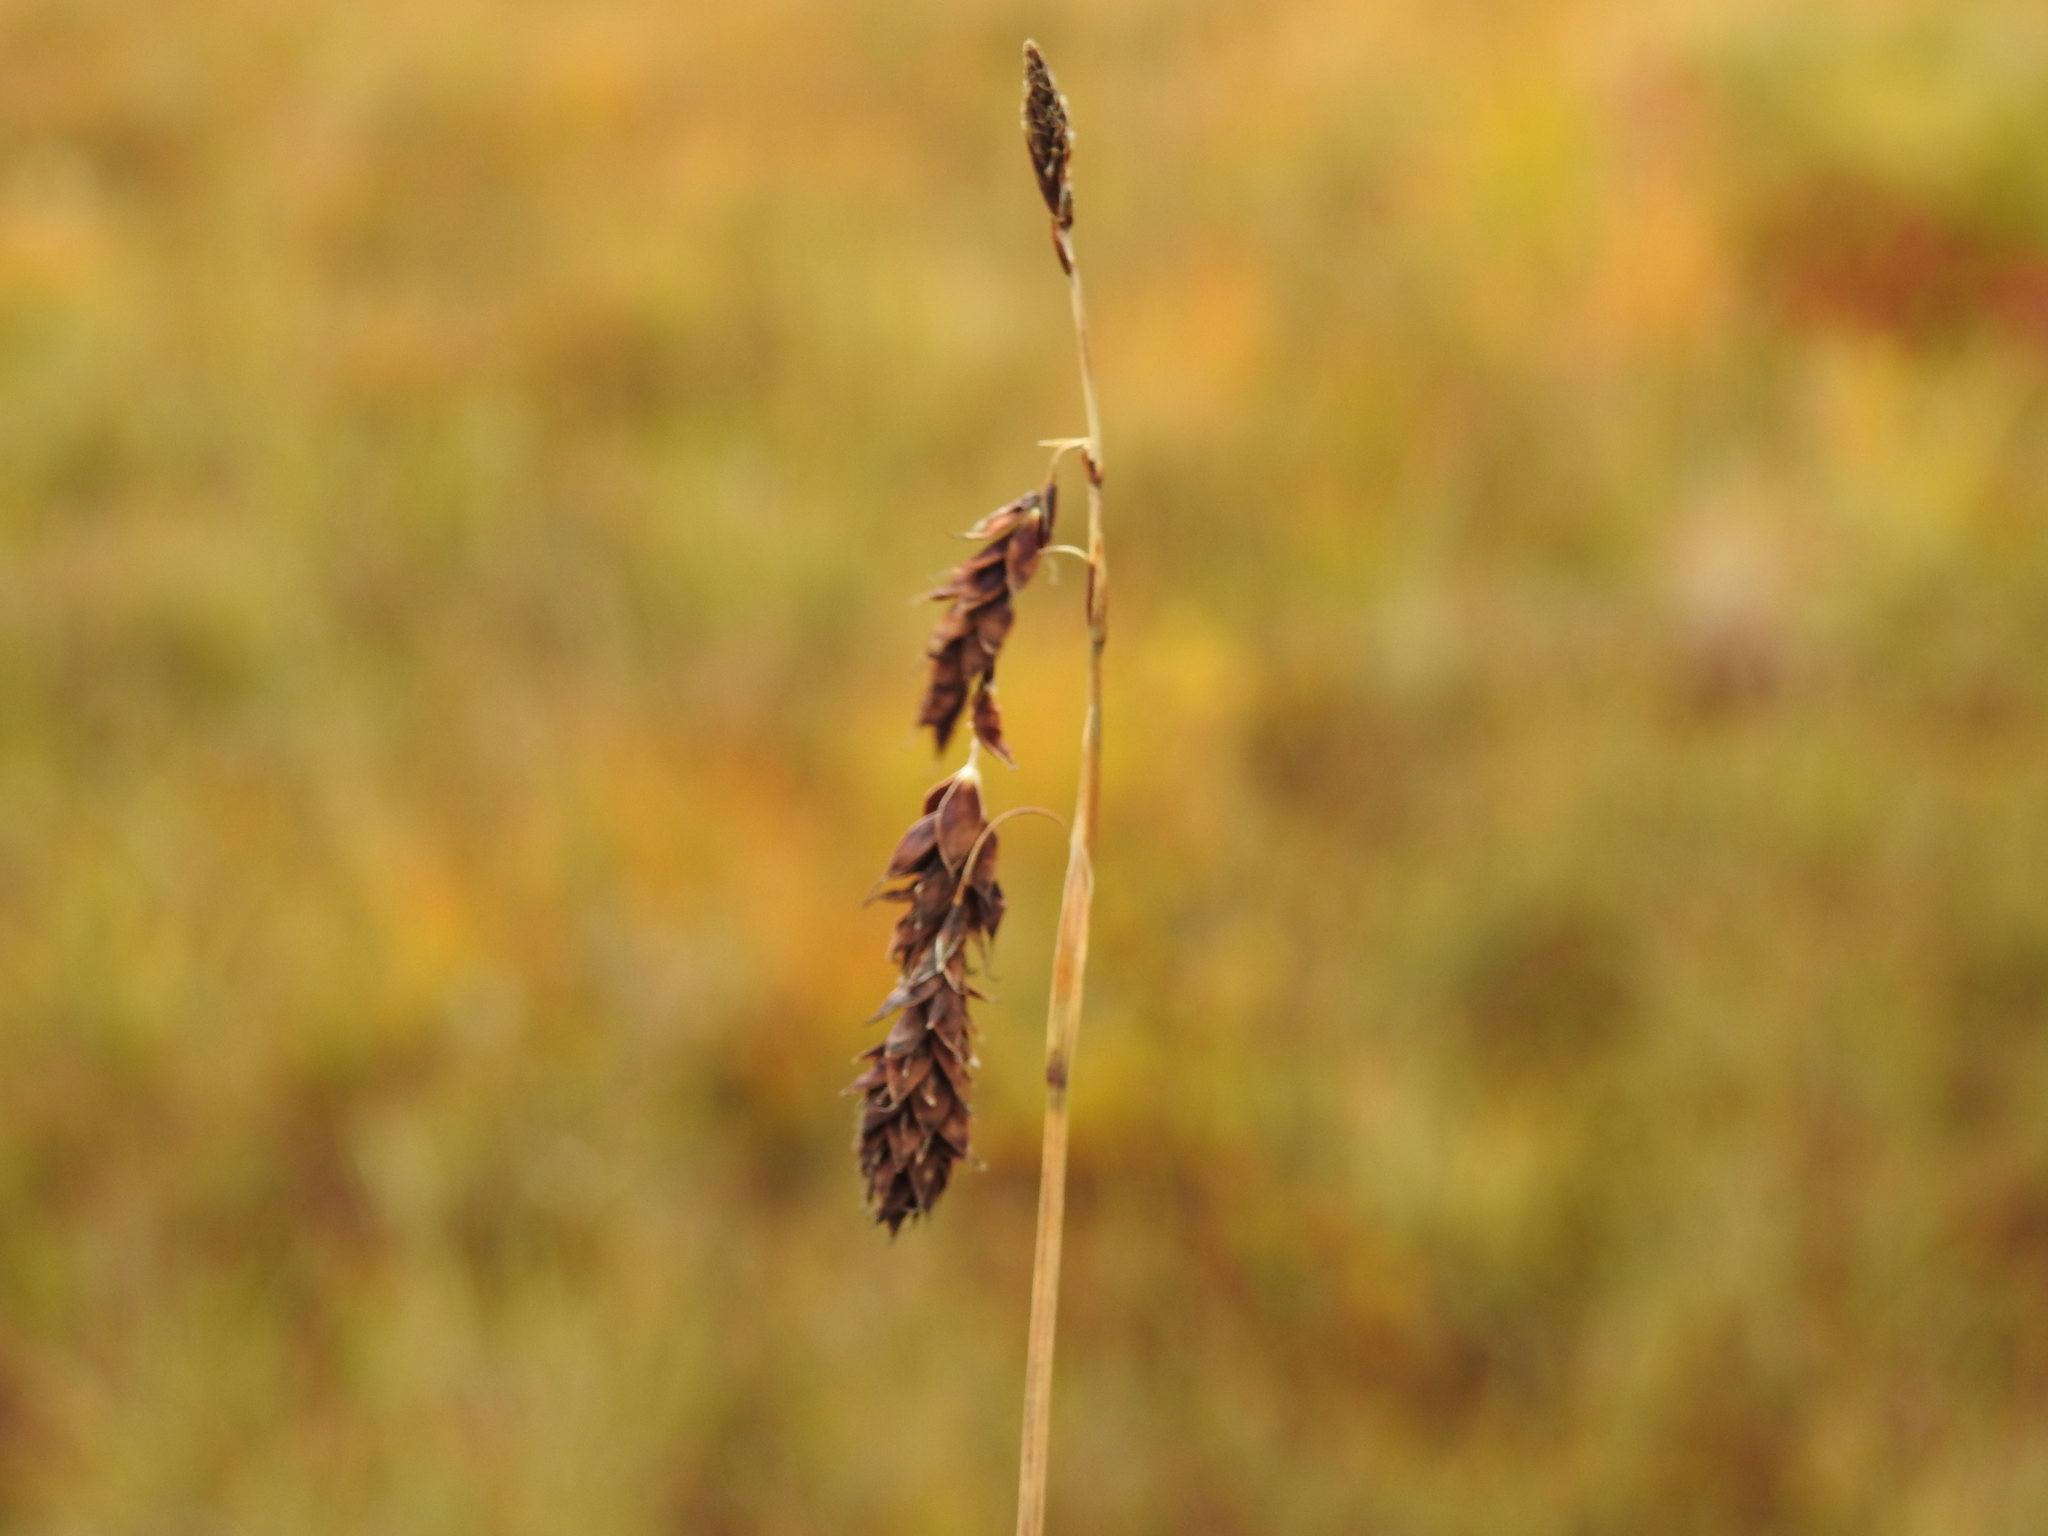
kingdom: Plantae
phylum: Tracheophyta
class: Liliopsida
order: Poales
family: Cyperaceae
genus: Carex
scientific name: Carex atrofusca
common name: Scorched alpine-sedge
